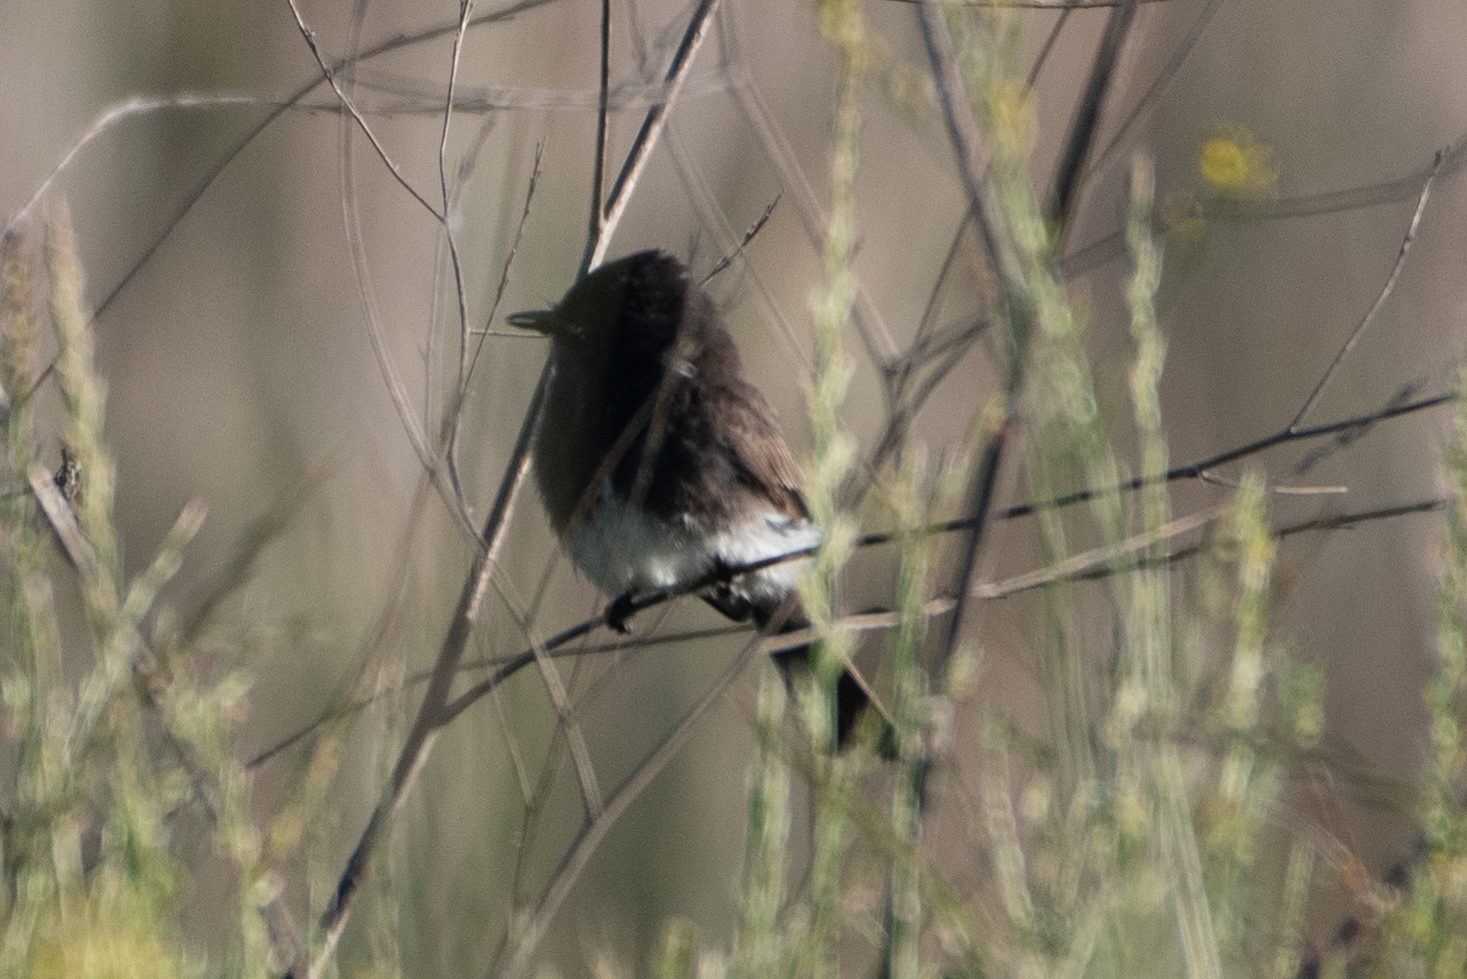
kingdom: Animalia
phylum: Chordata
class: Aves
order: Passeriformes
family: Tyrannidae
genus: Sayornis
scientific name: Sayornis nigricans
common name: Black phoebe
